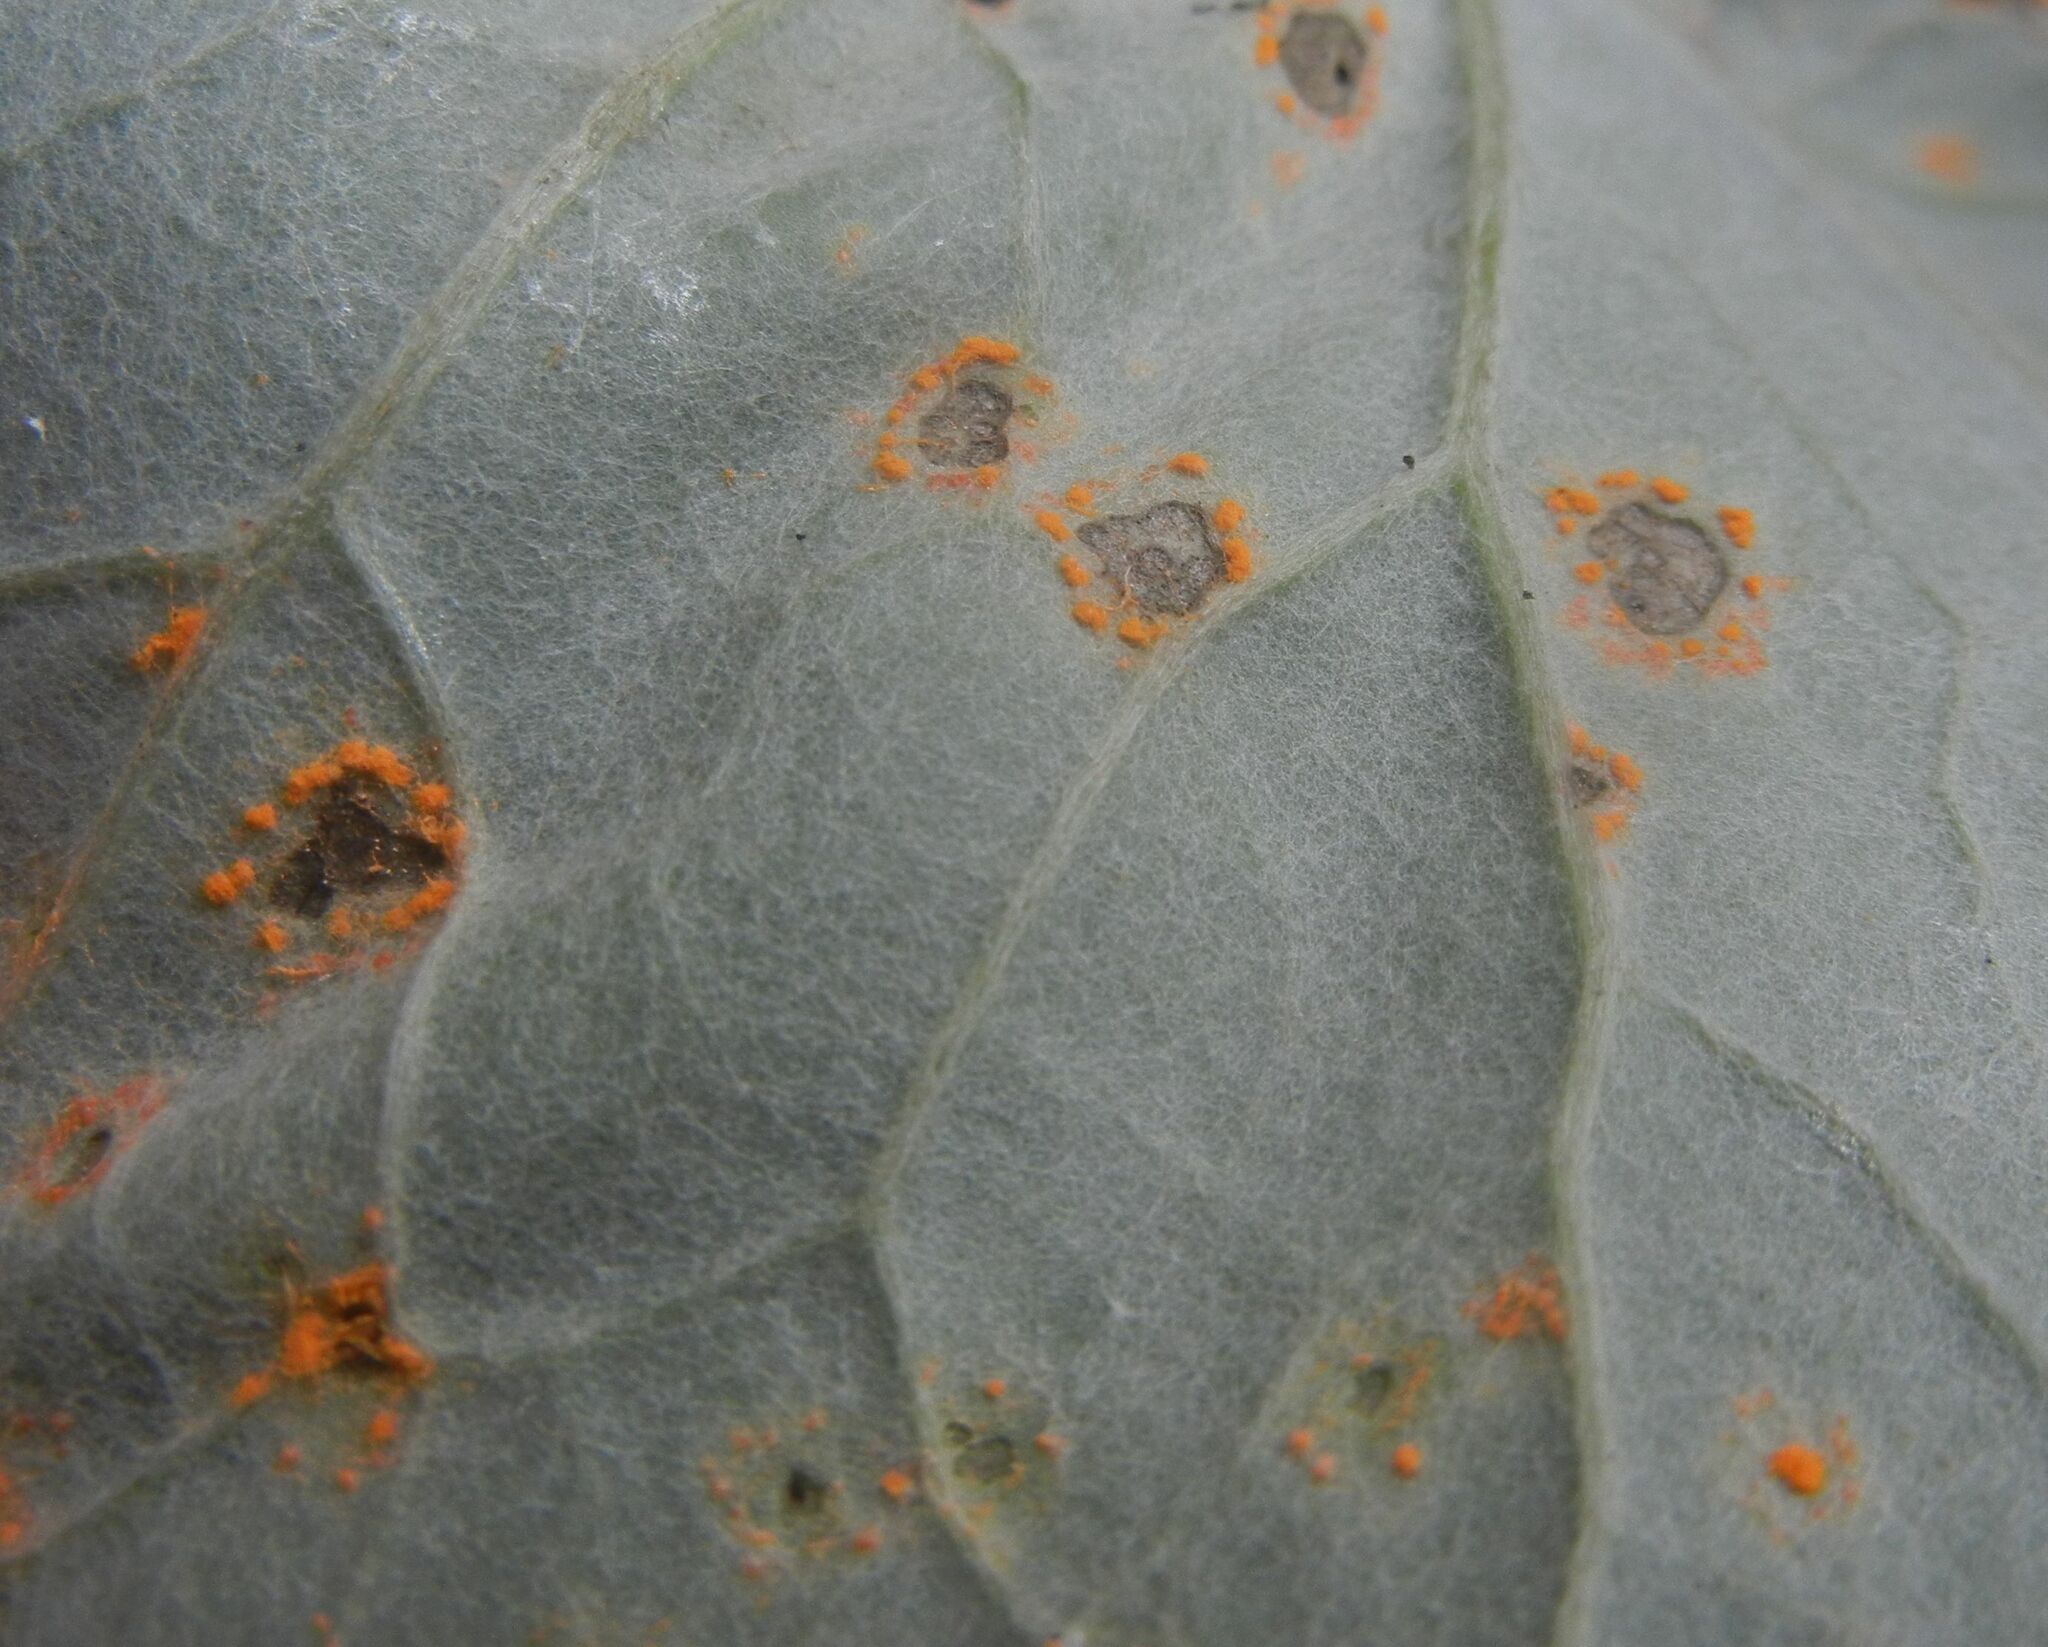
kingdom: Fungi
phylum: Basidiomycota
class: Pucciniomycetes
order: Pucciniales
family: Coleosporiaceae
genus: Coleosporium
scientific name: Coleosporium tussilaginis
